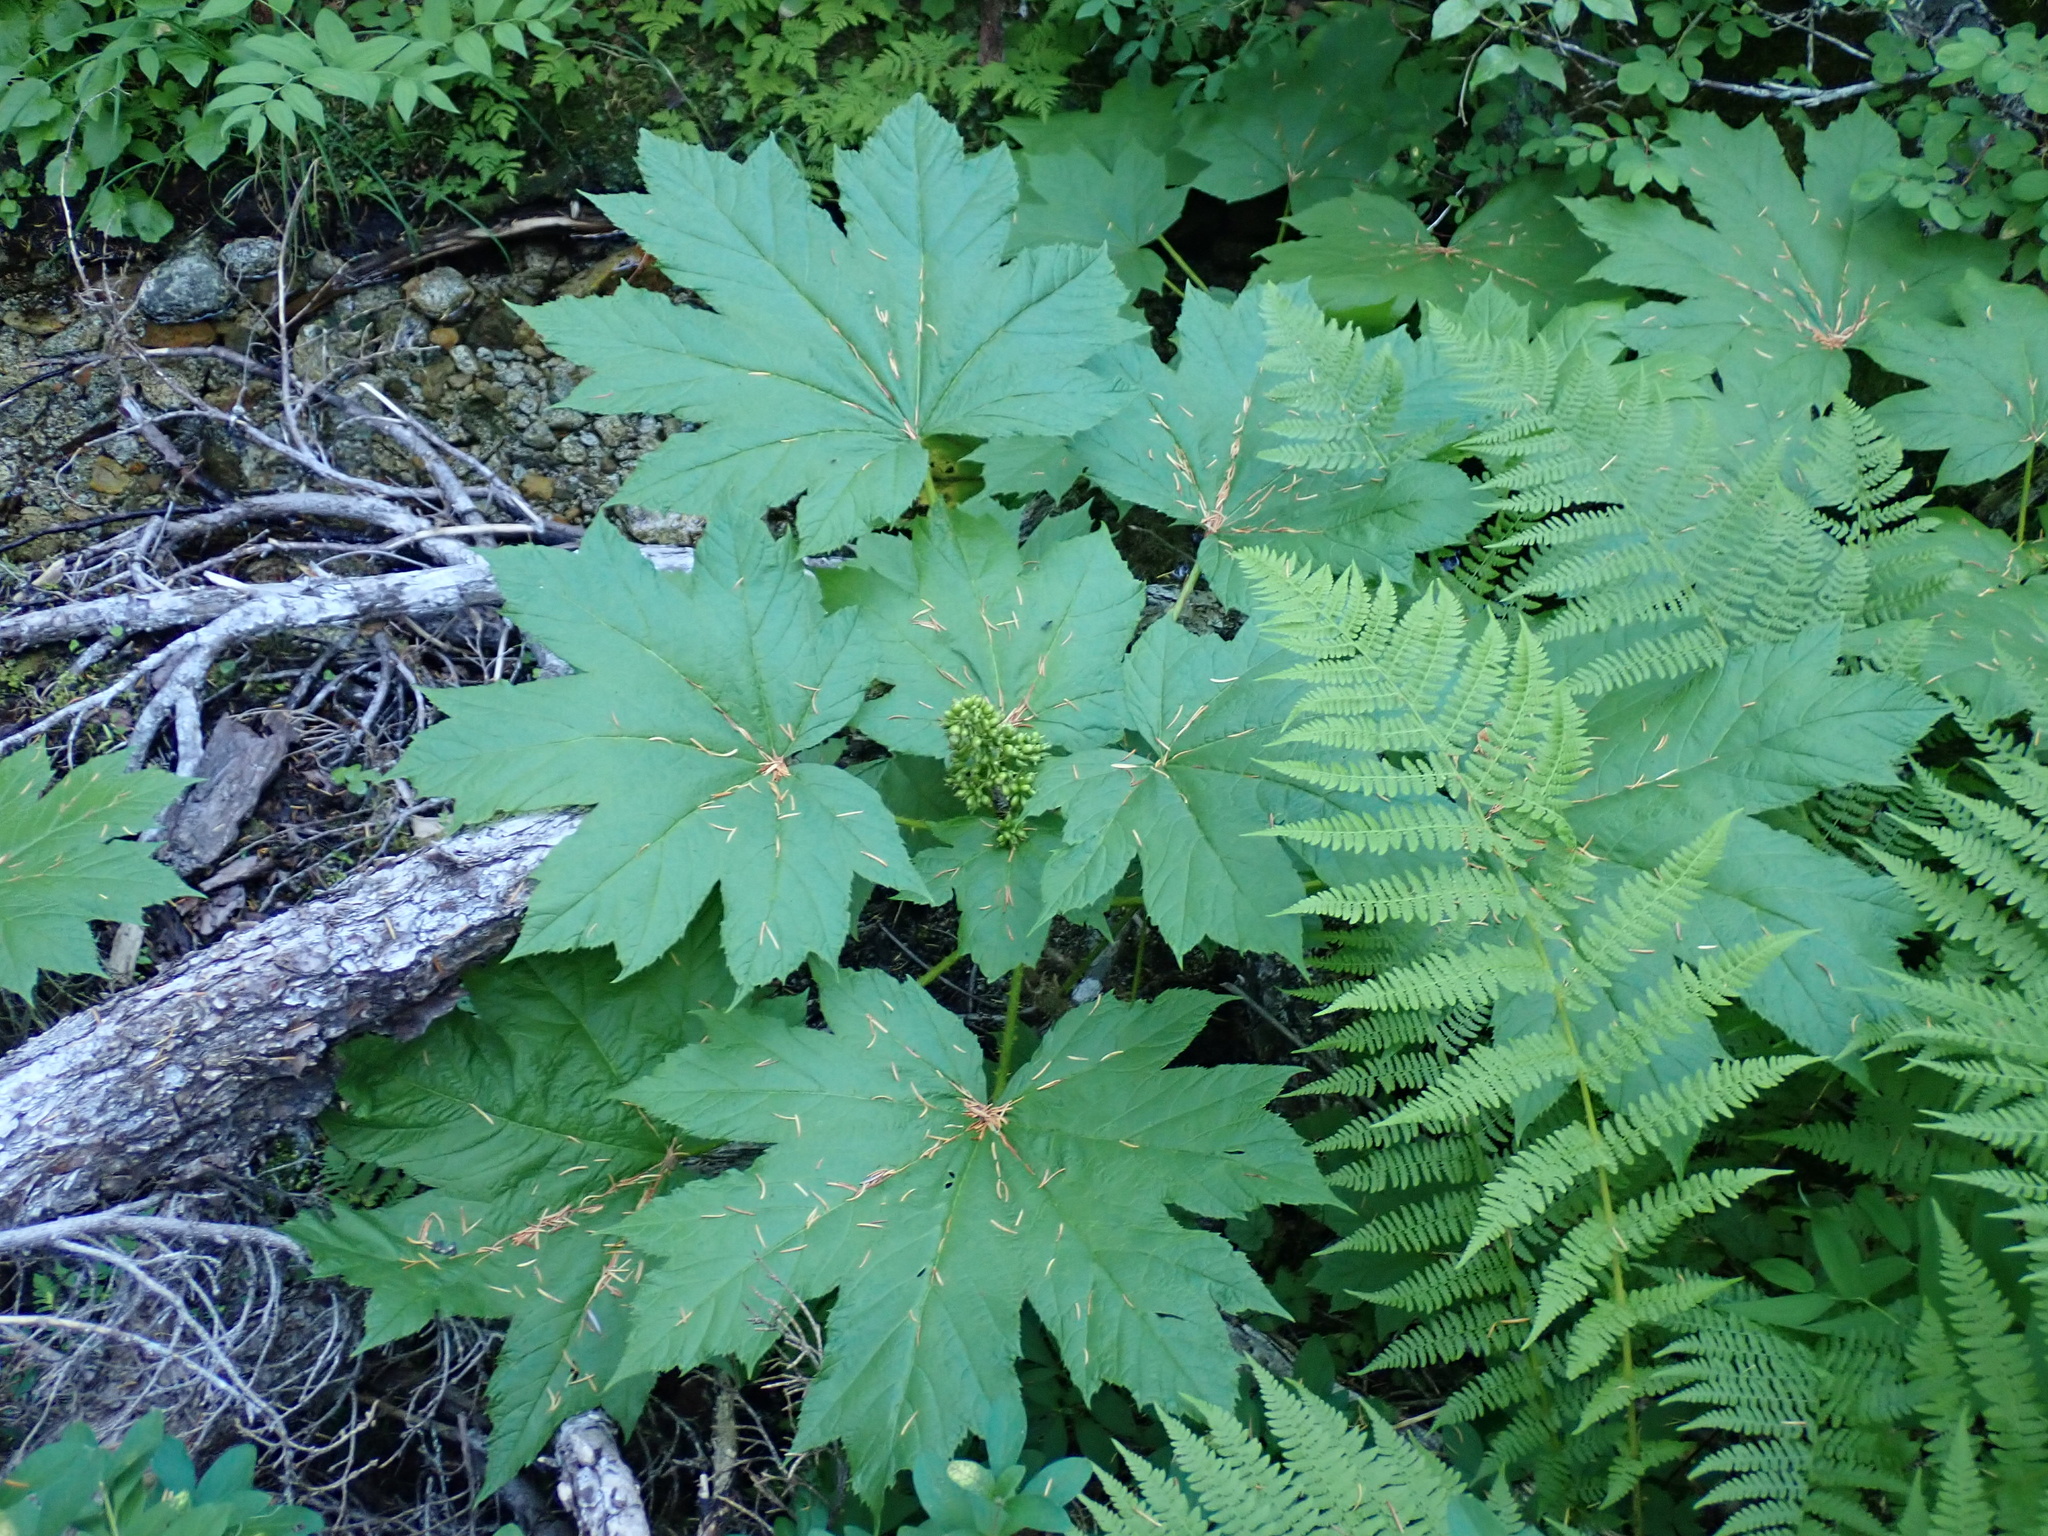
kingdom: Plantae
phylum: Tracheophyta
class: Magnoliopsida
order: Apiales
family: Araliaceae
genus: Oplopanax
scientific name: Oplopanax horridus
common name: Devil's walking-stick
